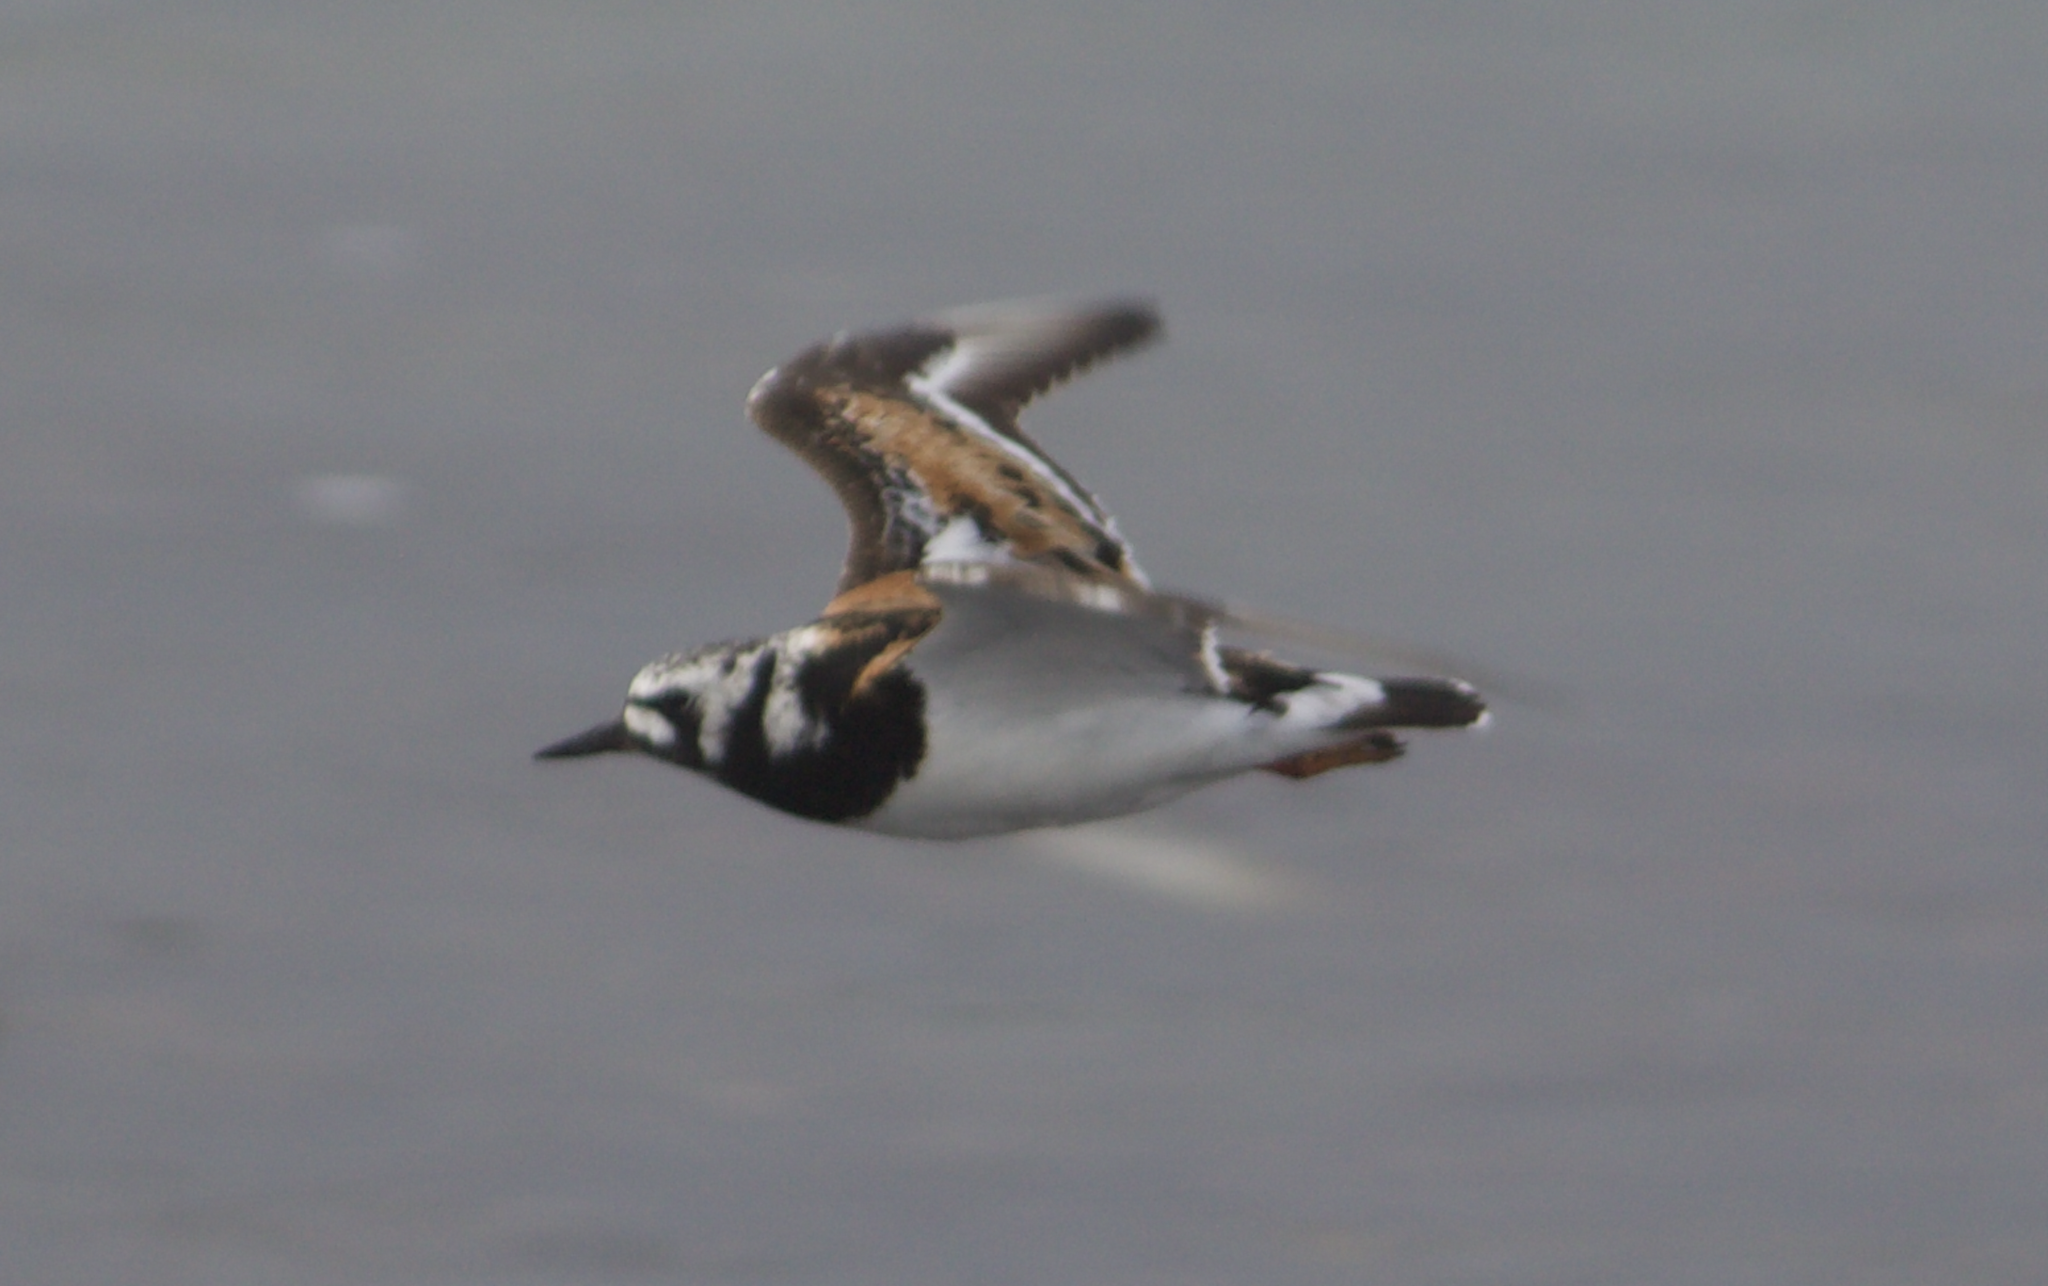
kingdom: Animalia
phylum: Chordata
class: Aves
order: Charadriiformes
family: Scolopacidae
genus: Arenaria
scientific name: Arenaria interpres
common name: Ruddy turnstone
